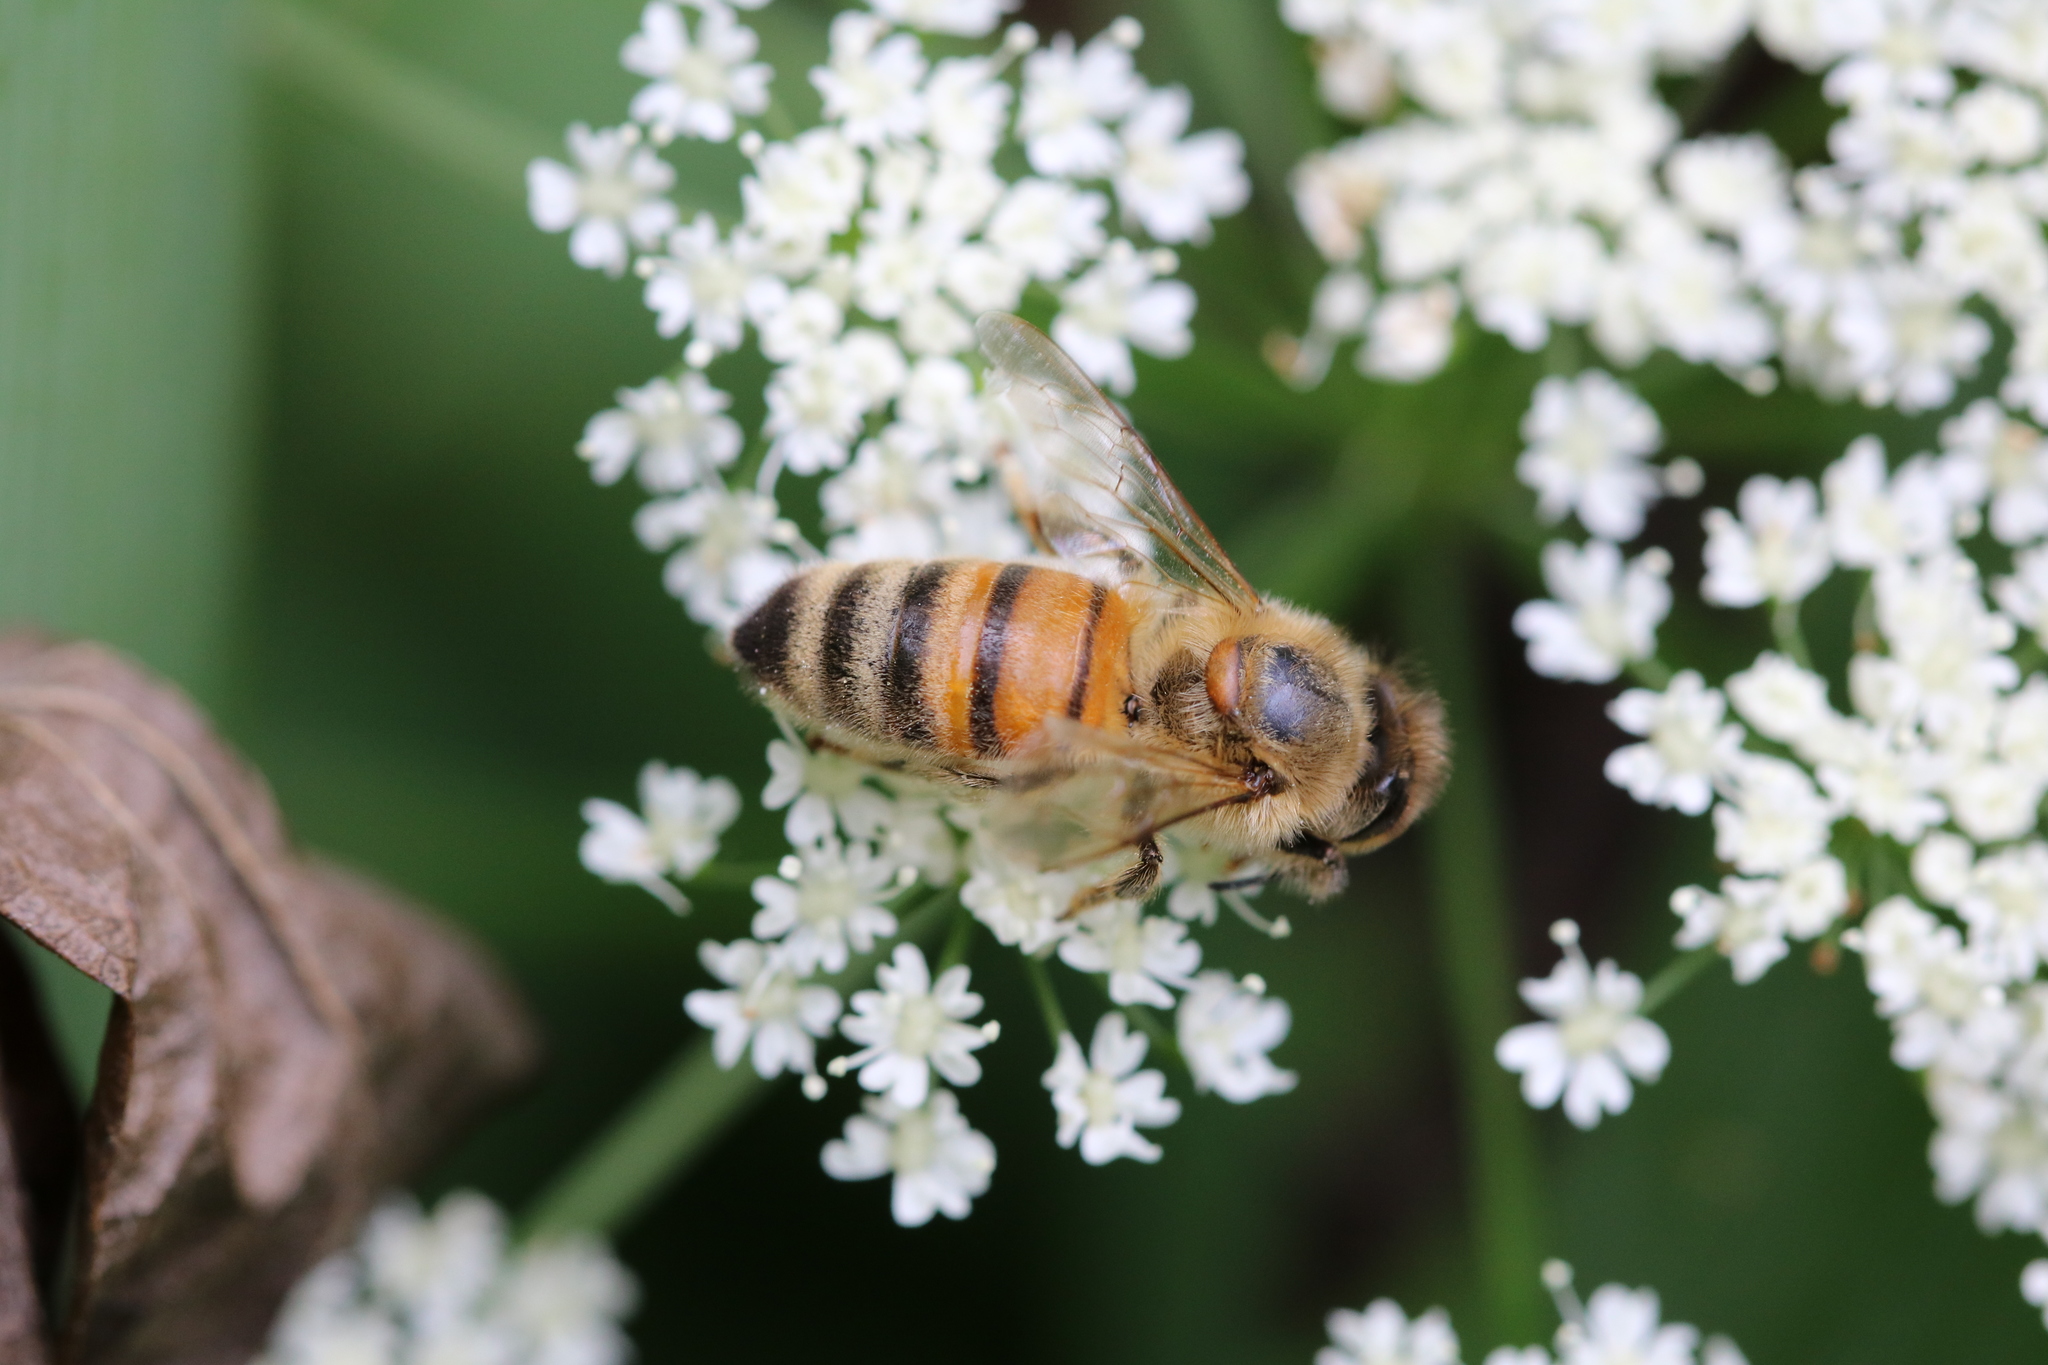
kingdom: Animalia
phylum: Arthropoda
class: Insecta
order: Hymenoptera
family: Apidae
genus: Apis
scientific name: Apis mellifera
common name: Honey bee
